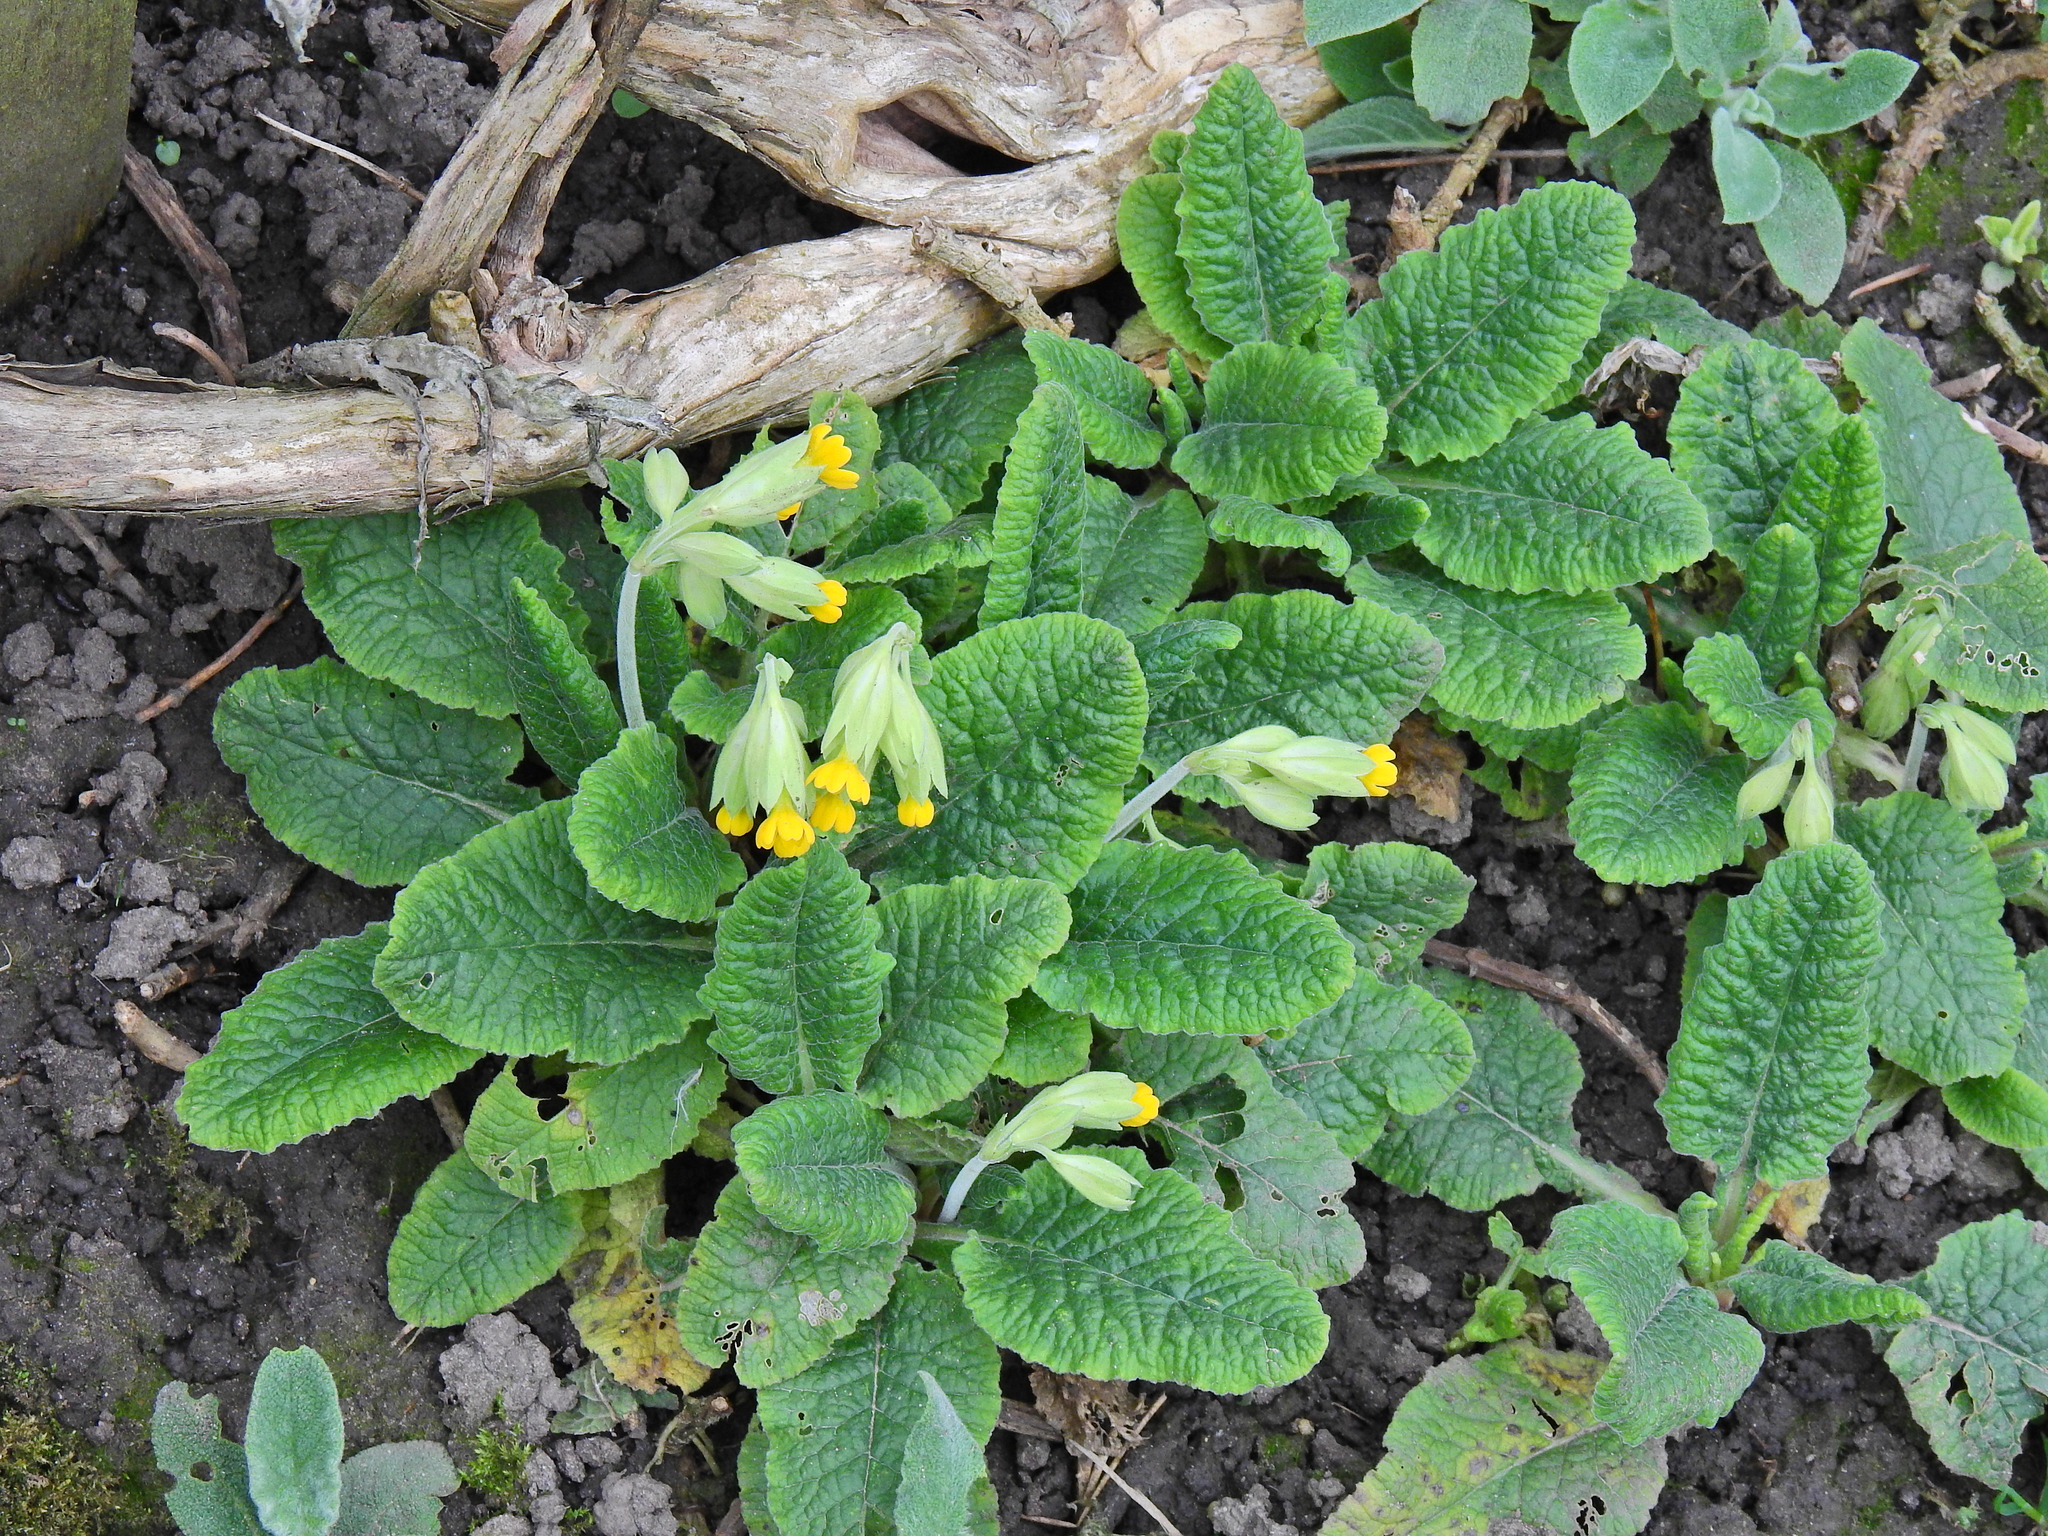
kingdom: Plantae
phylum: Tracheophyta
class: Magnoliopsida
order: Ericales
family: Primulaceae
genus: Primula
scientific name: Primula veris
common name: Cowslip
